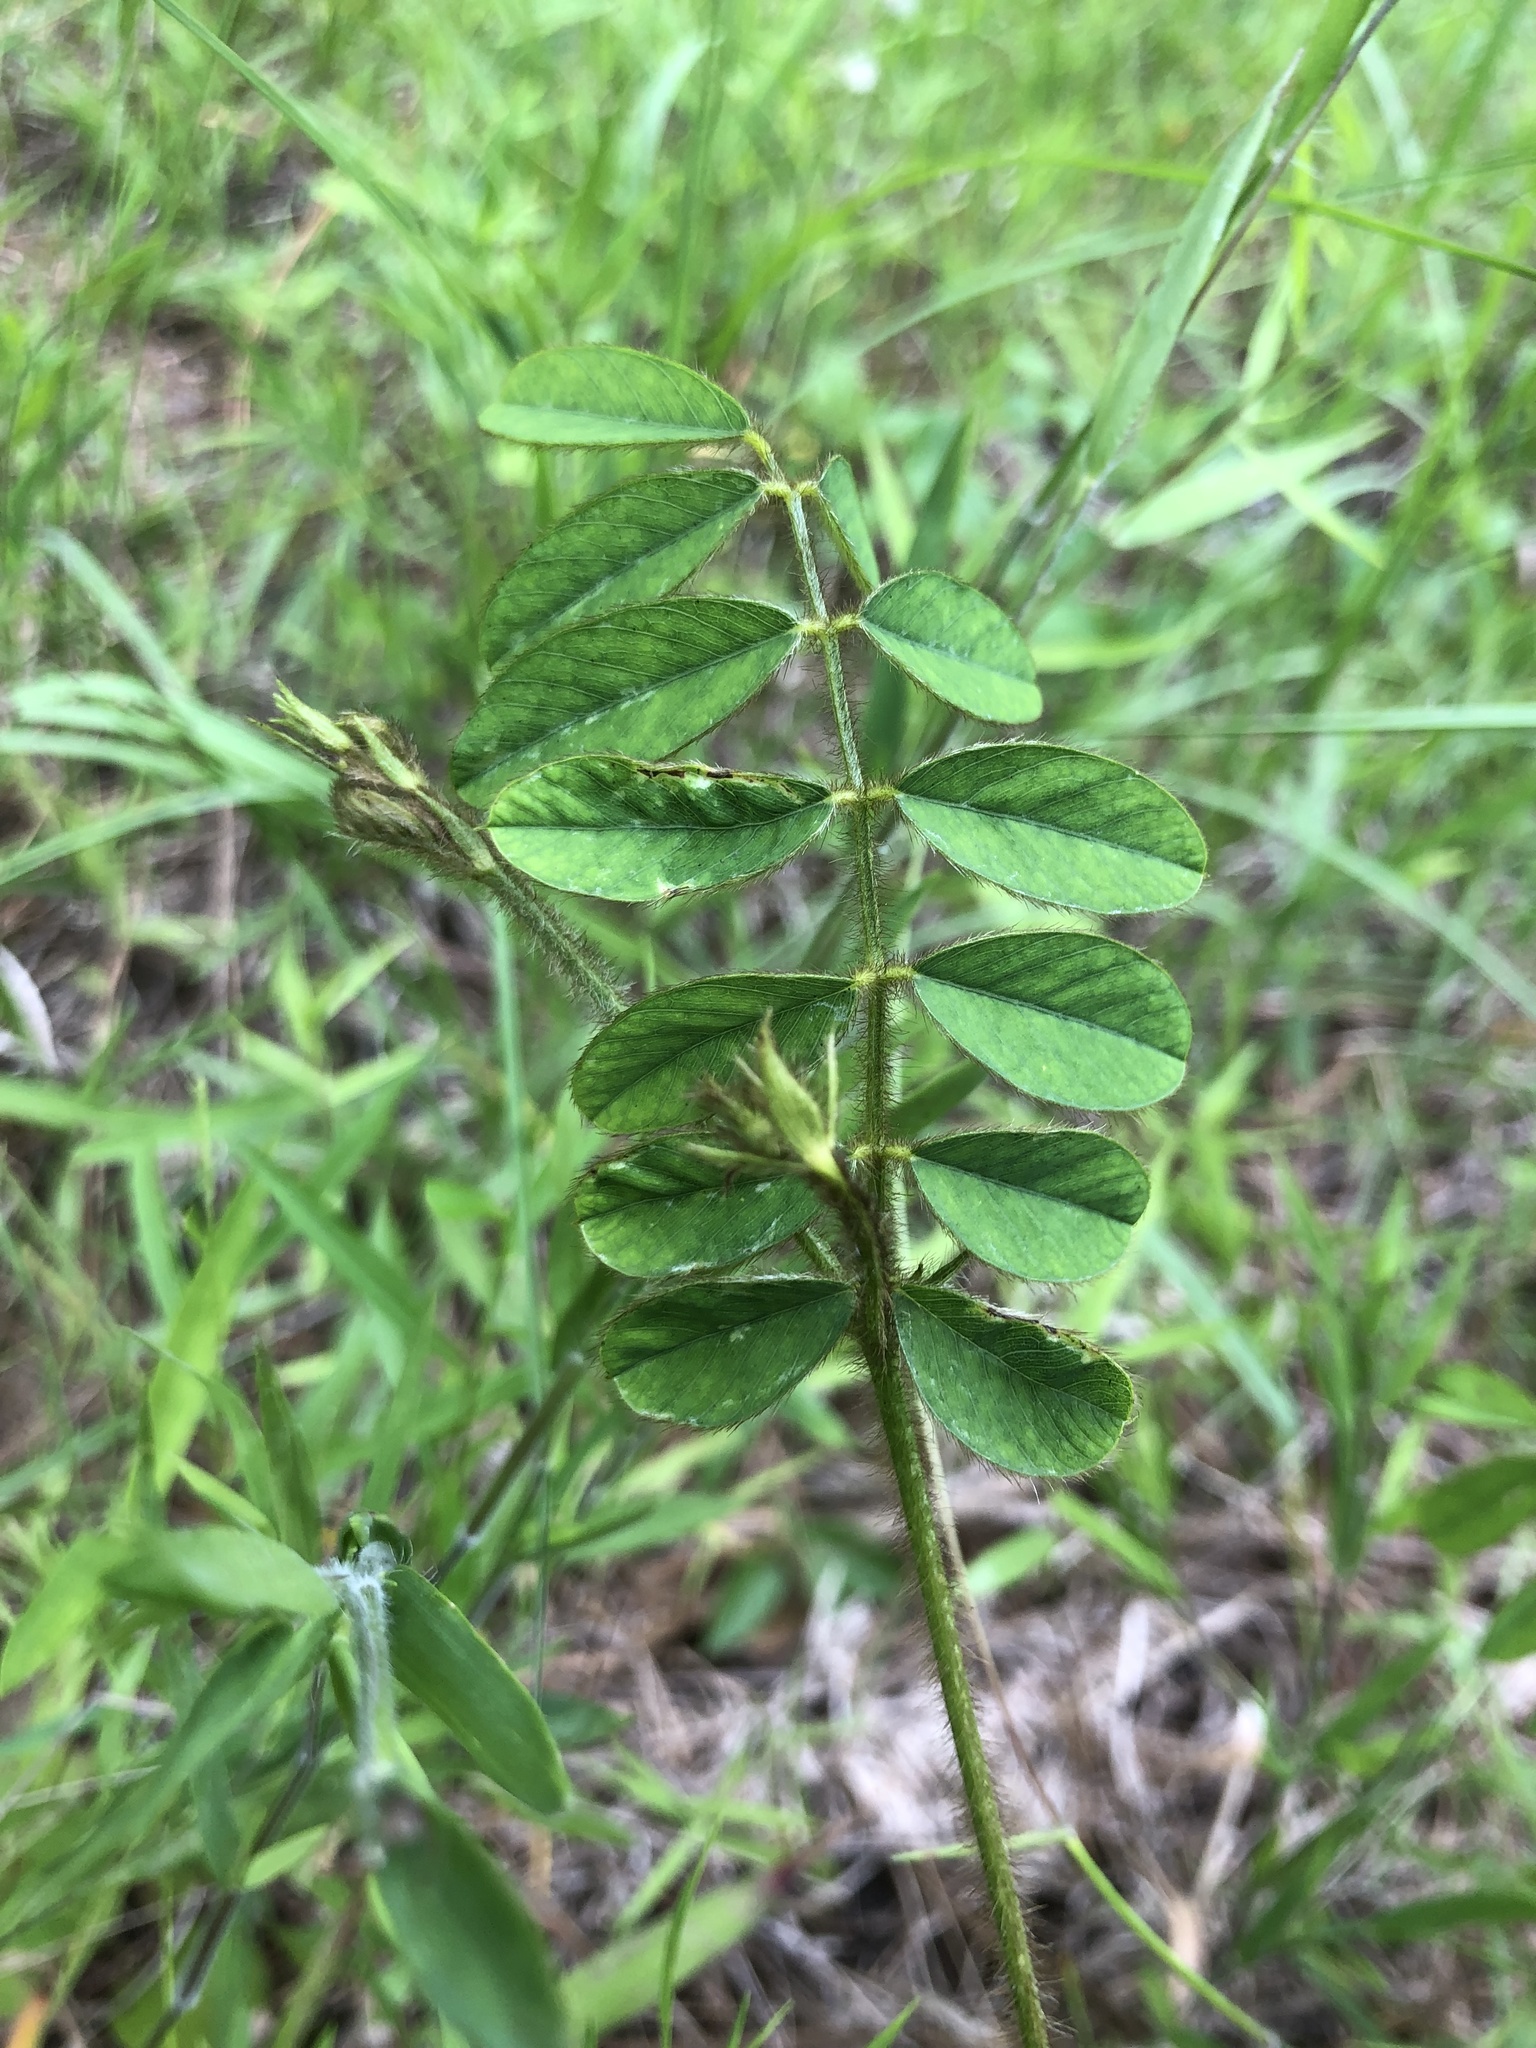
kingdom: Plantae
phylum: Tracheophyta
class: Magnoliopsida
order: Fabales
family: Fabaceae
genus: Tephrosia
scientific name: Tephrosia spicata
